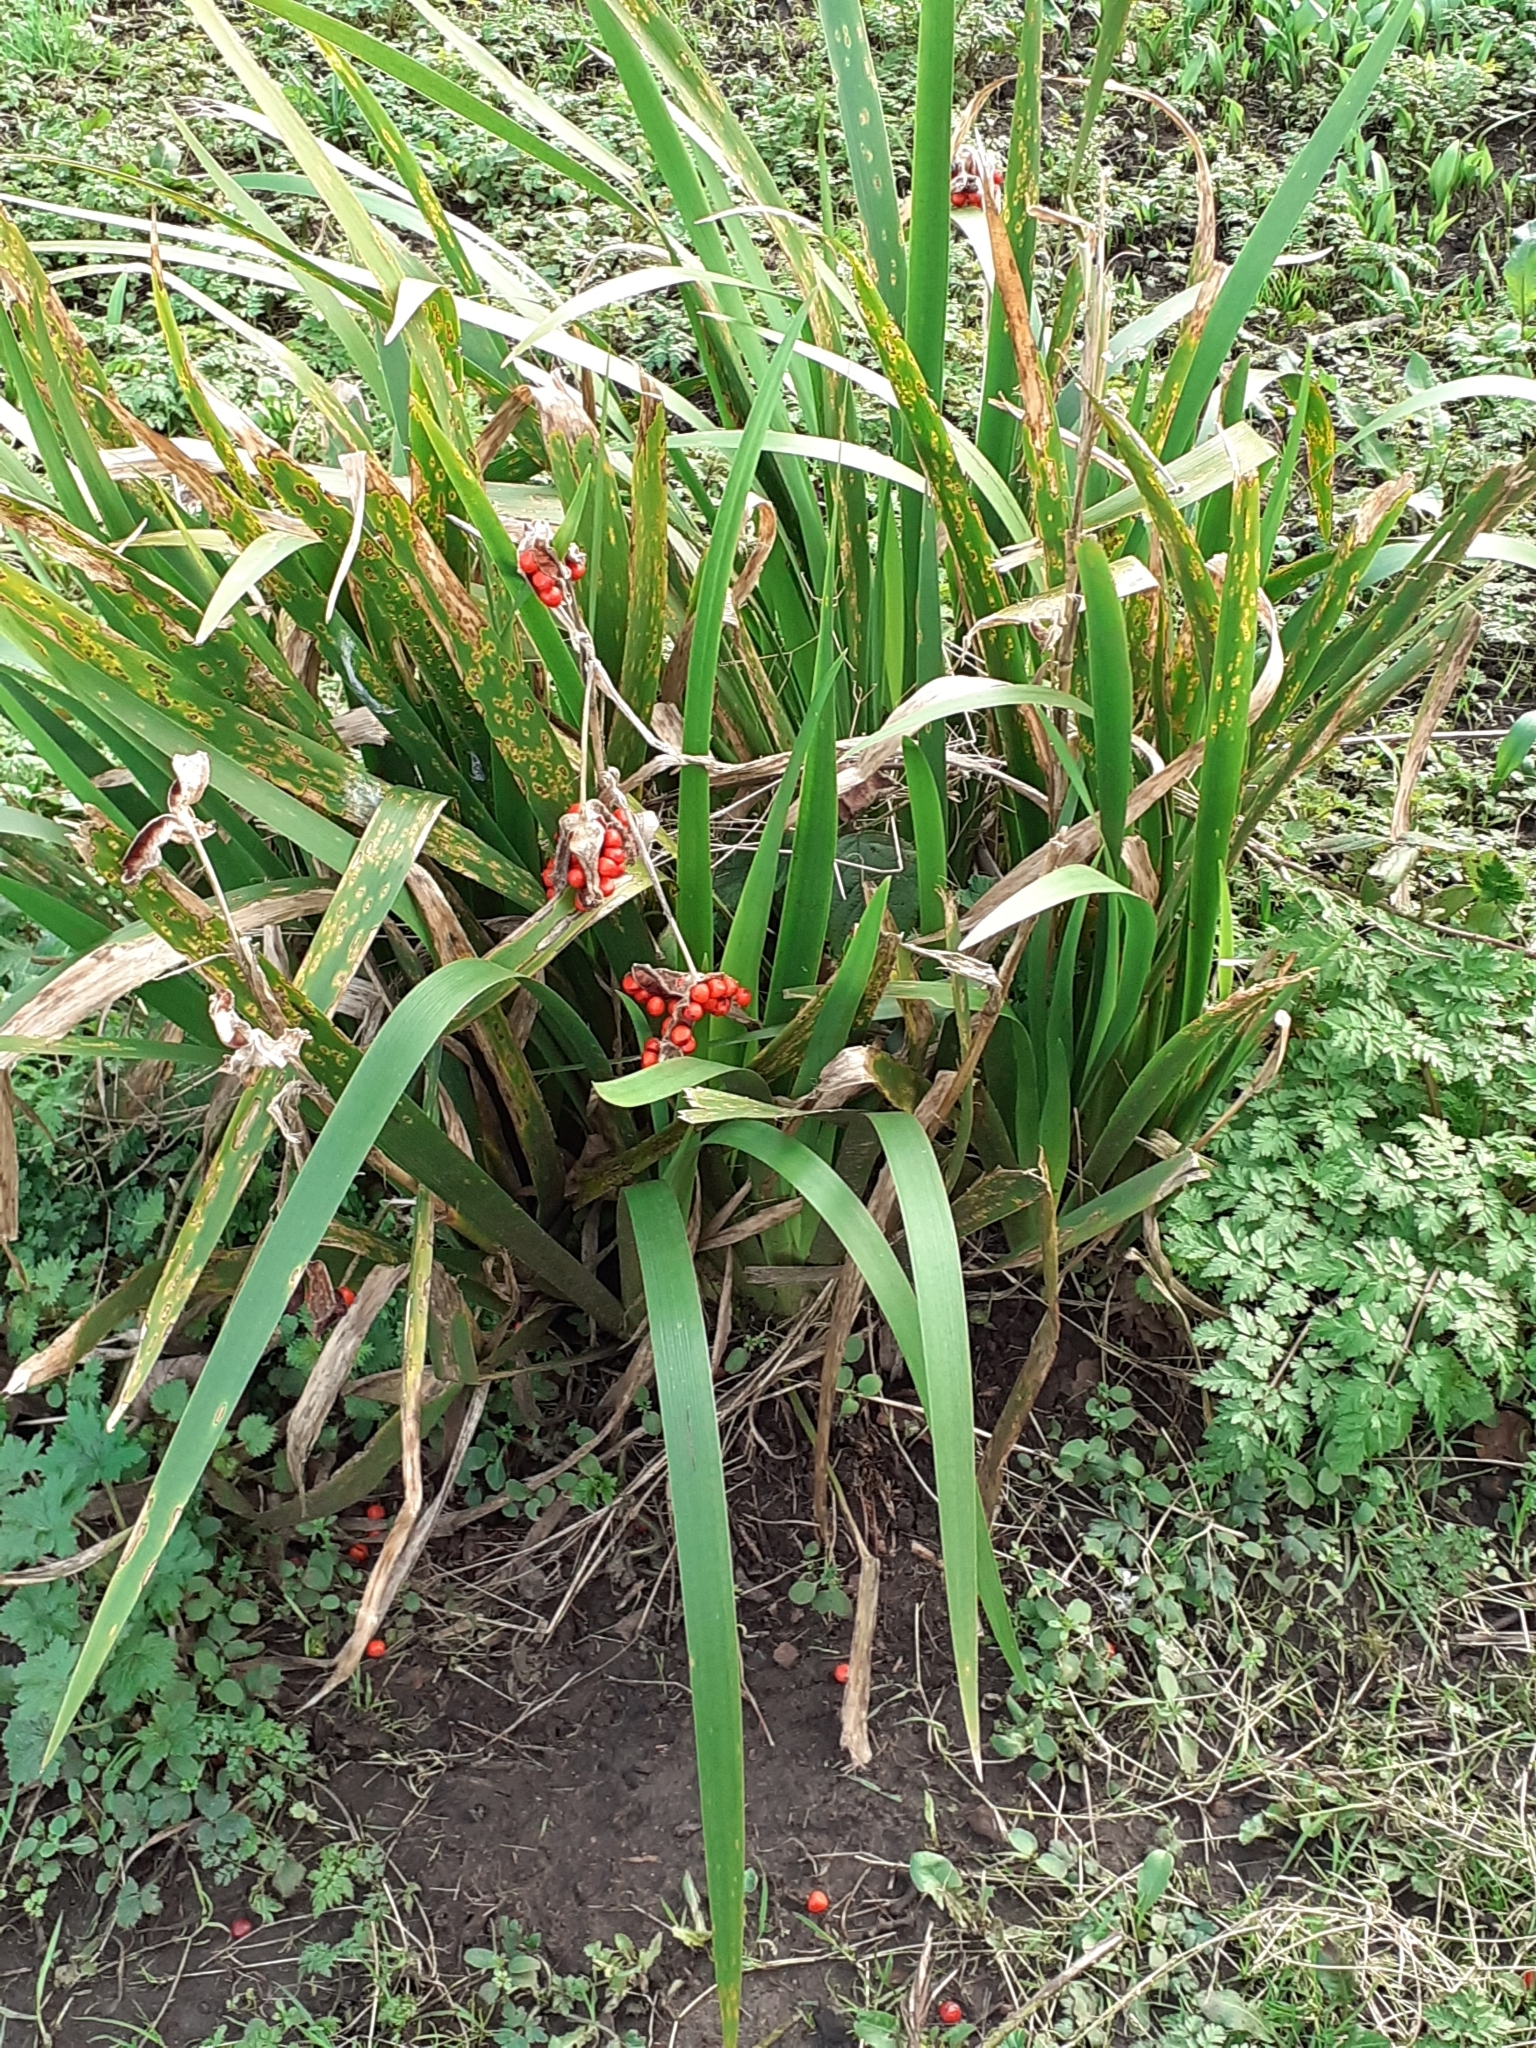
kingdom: Plantae
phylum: Tracheophyta
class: Liliopsida
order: Asparagales
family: Iridaceae
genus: Iris
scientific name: Iris foetidissima
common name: Stinking iris
